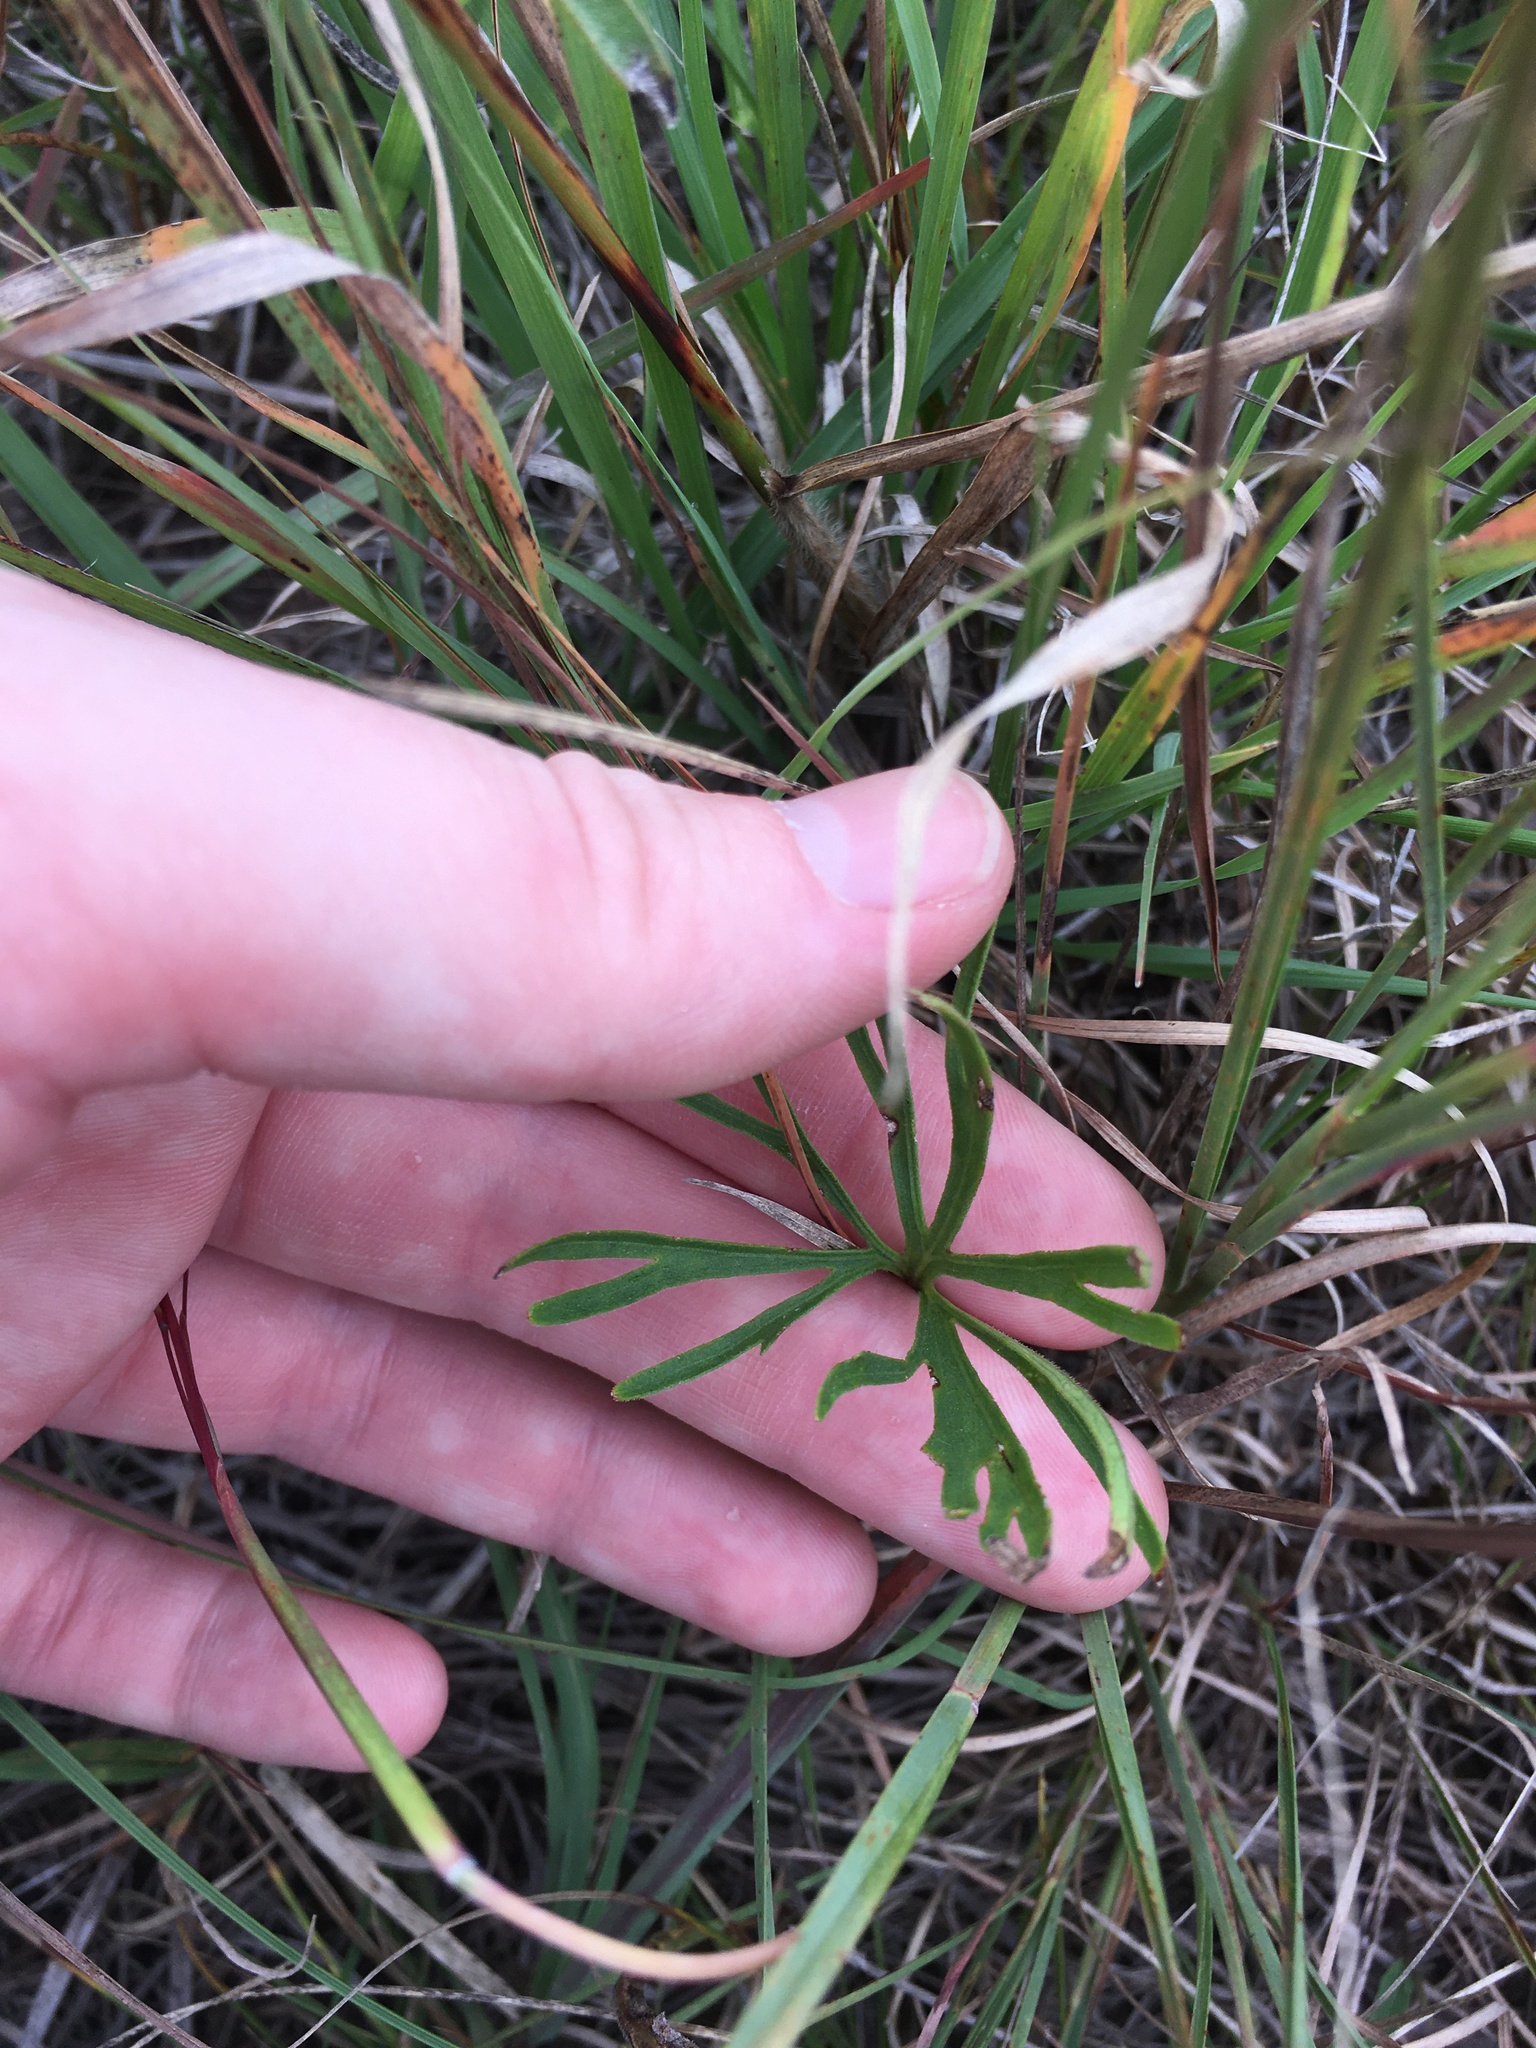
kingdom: Plantae
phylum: Tracheophyta
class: Magnoliopsida
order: Malpighiales
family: Violaceae
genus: Viola
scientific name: Viola pedatifida
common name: Prairie violet
